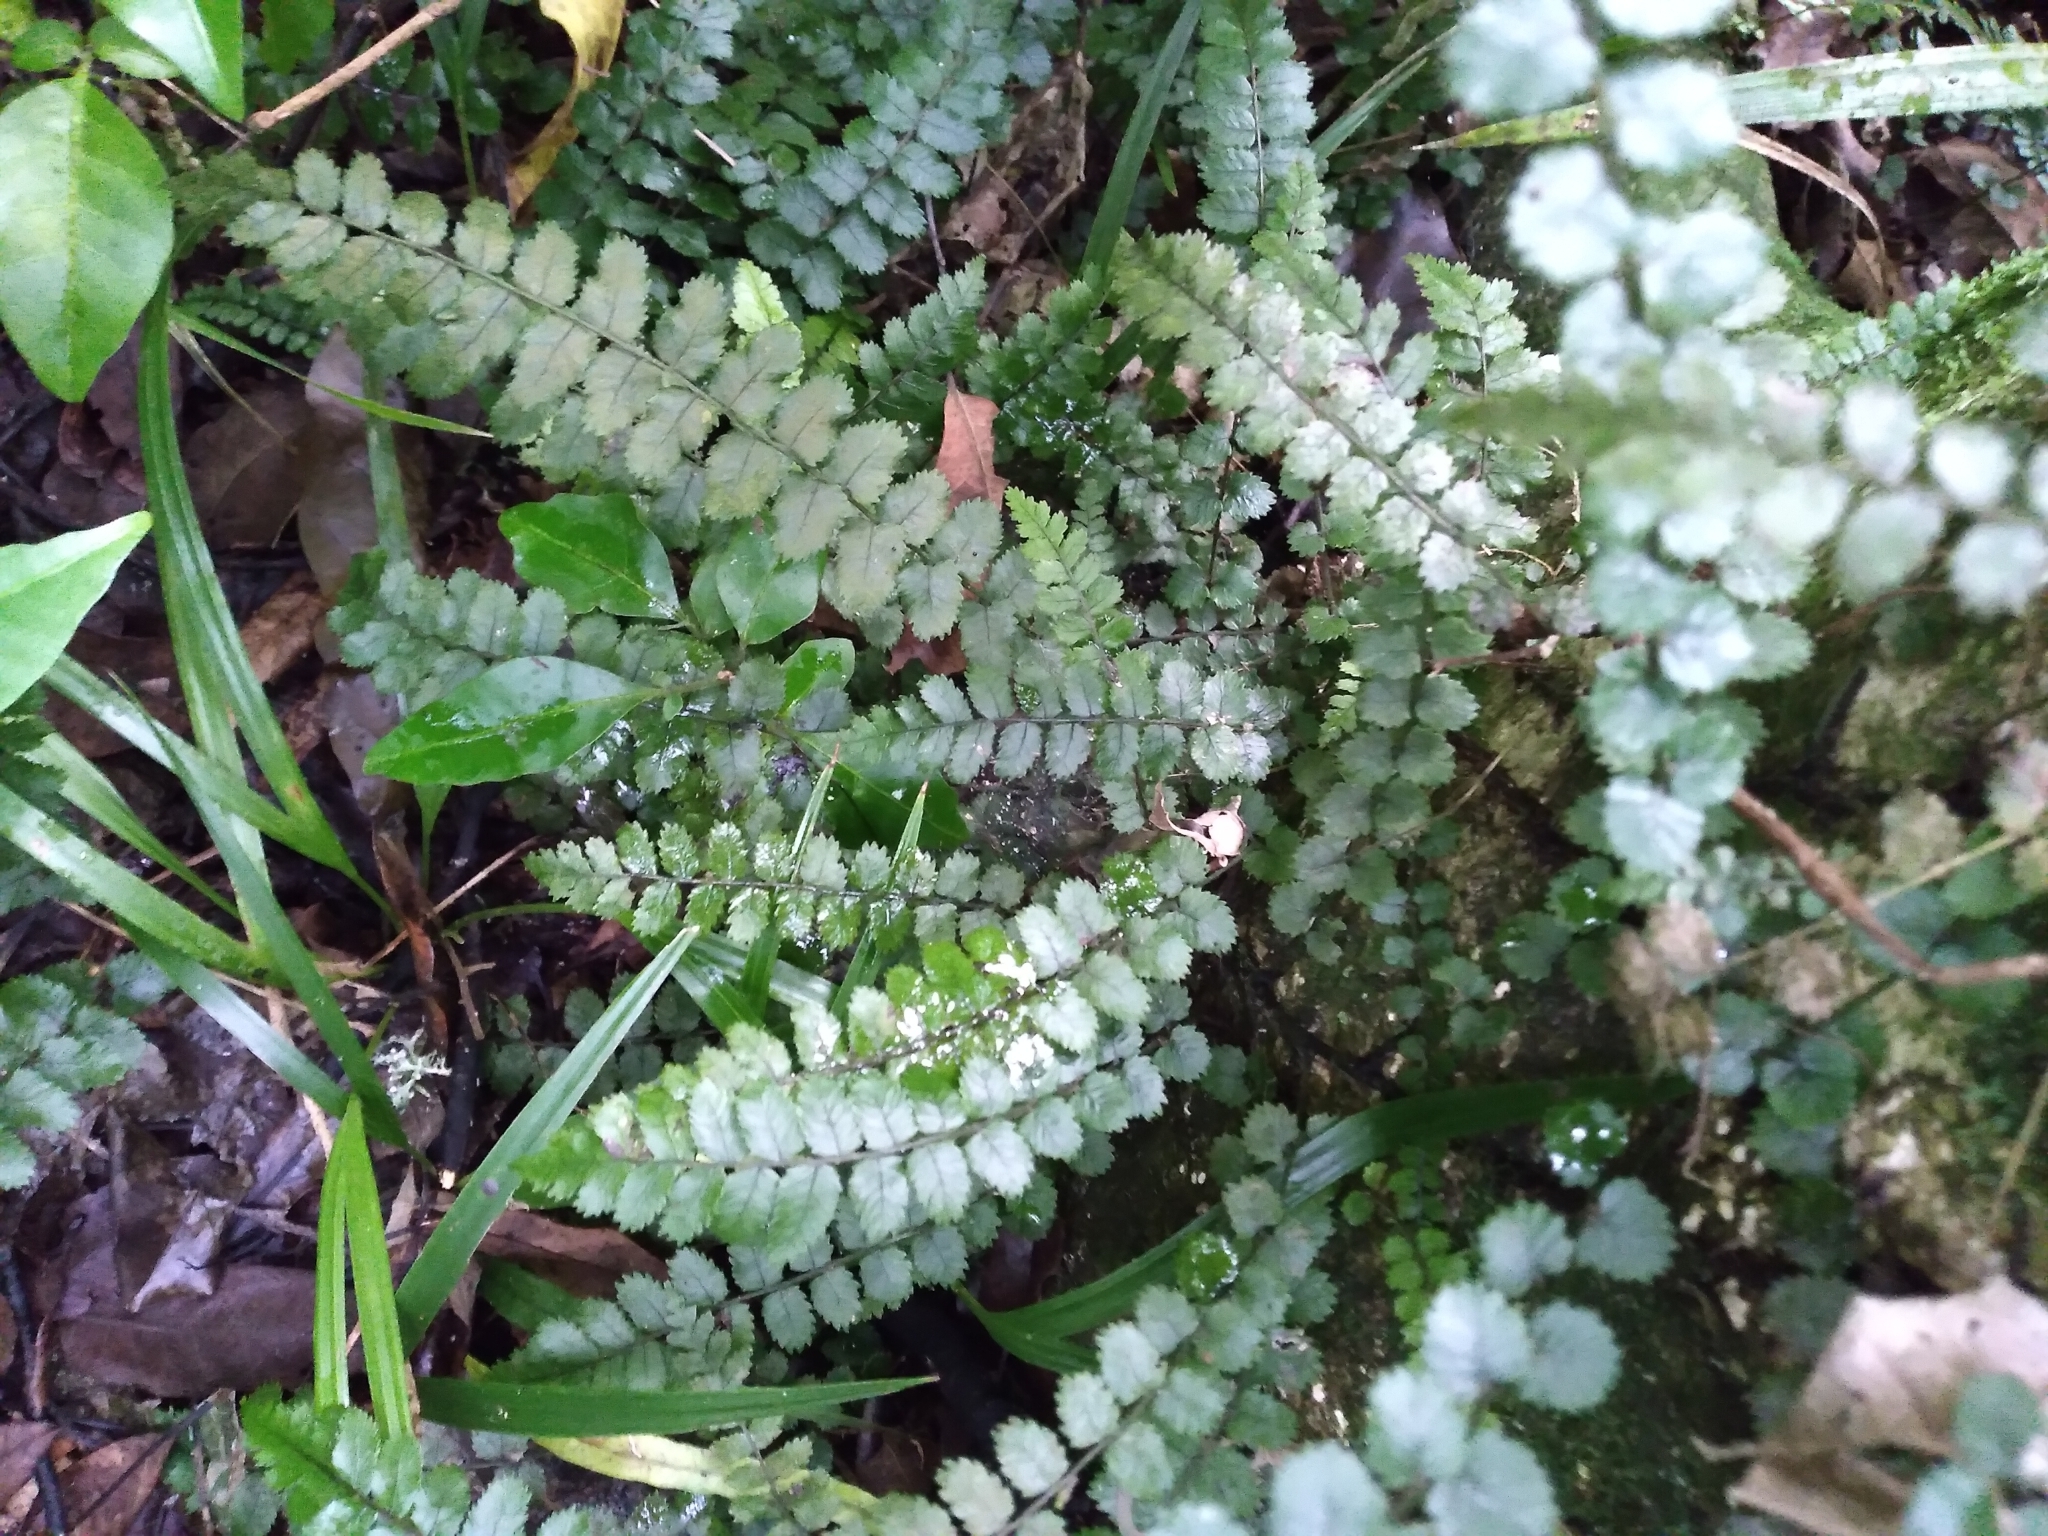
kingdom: Plantae
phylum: Tracheophyta
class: Polypodiopsida
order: Polypodiales
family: Blechnaceae
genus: Icarus
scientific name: Icarus filiformis
